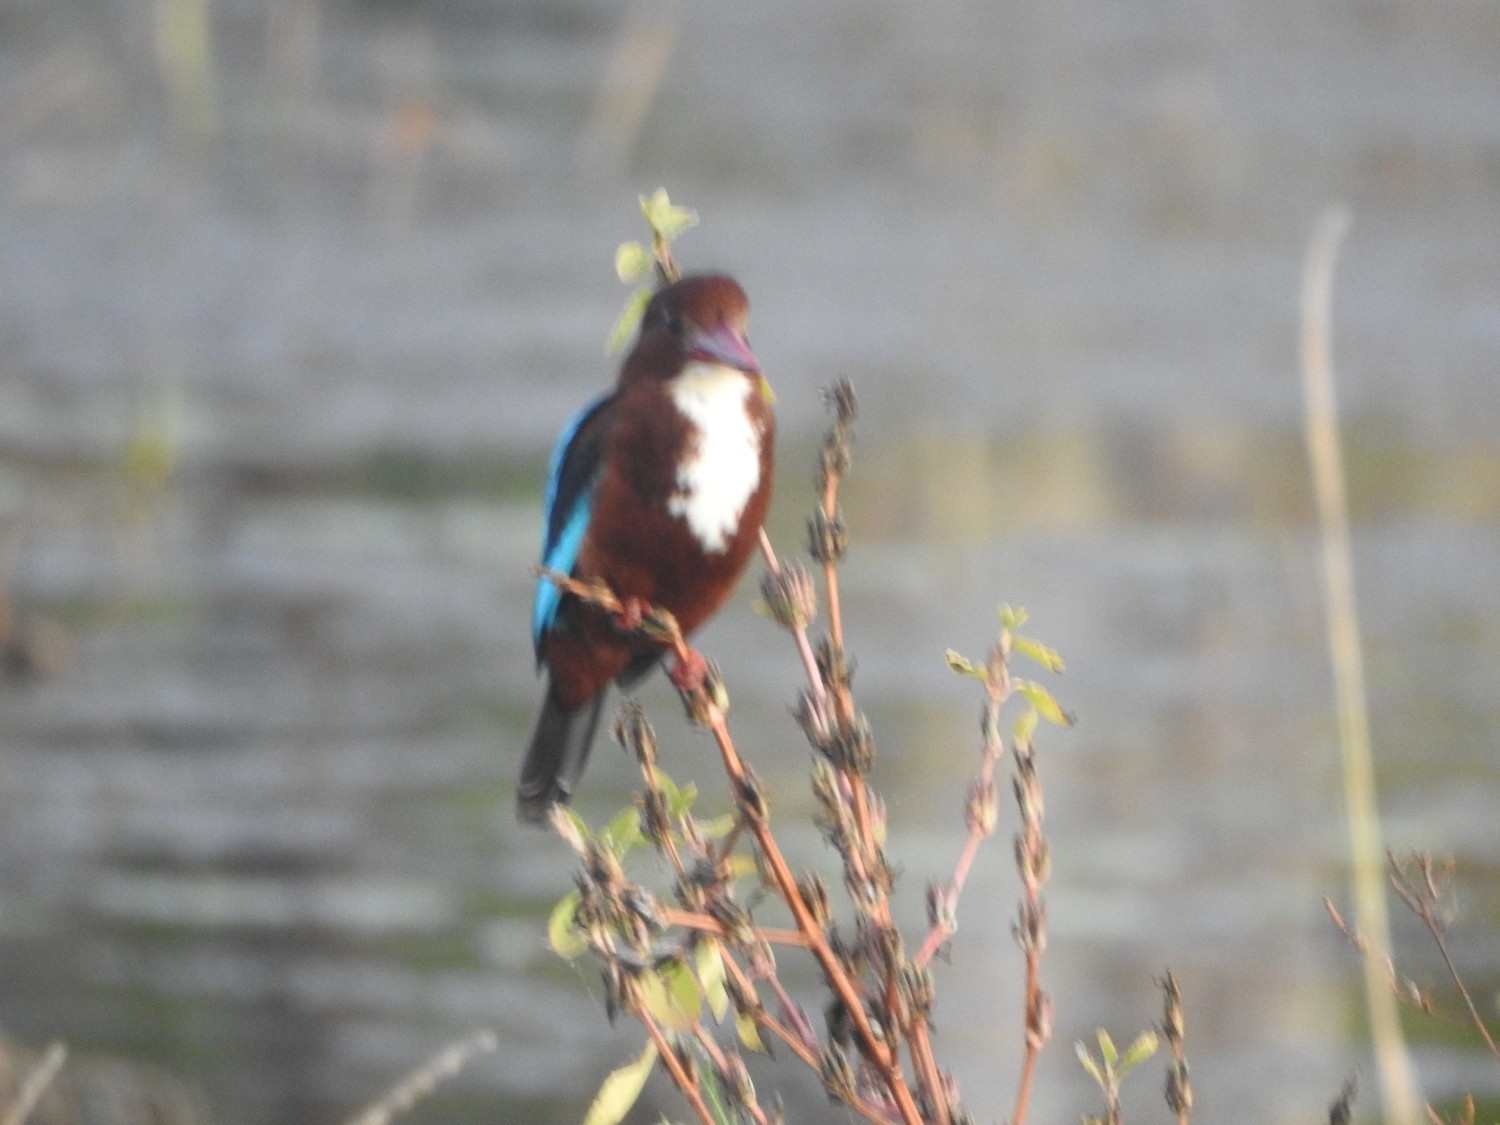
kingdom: Animalia
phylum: Chordata
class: Aves
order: Coraciiformes
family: Alcedinidae
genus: Halcyon
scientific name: Halcyon smyrnensis
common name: White-throated kingfisher
